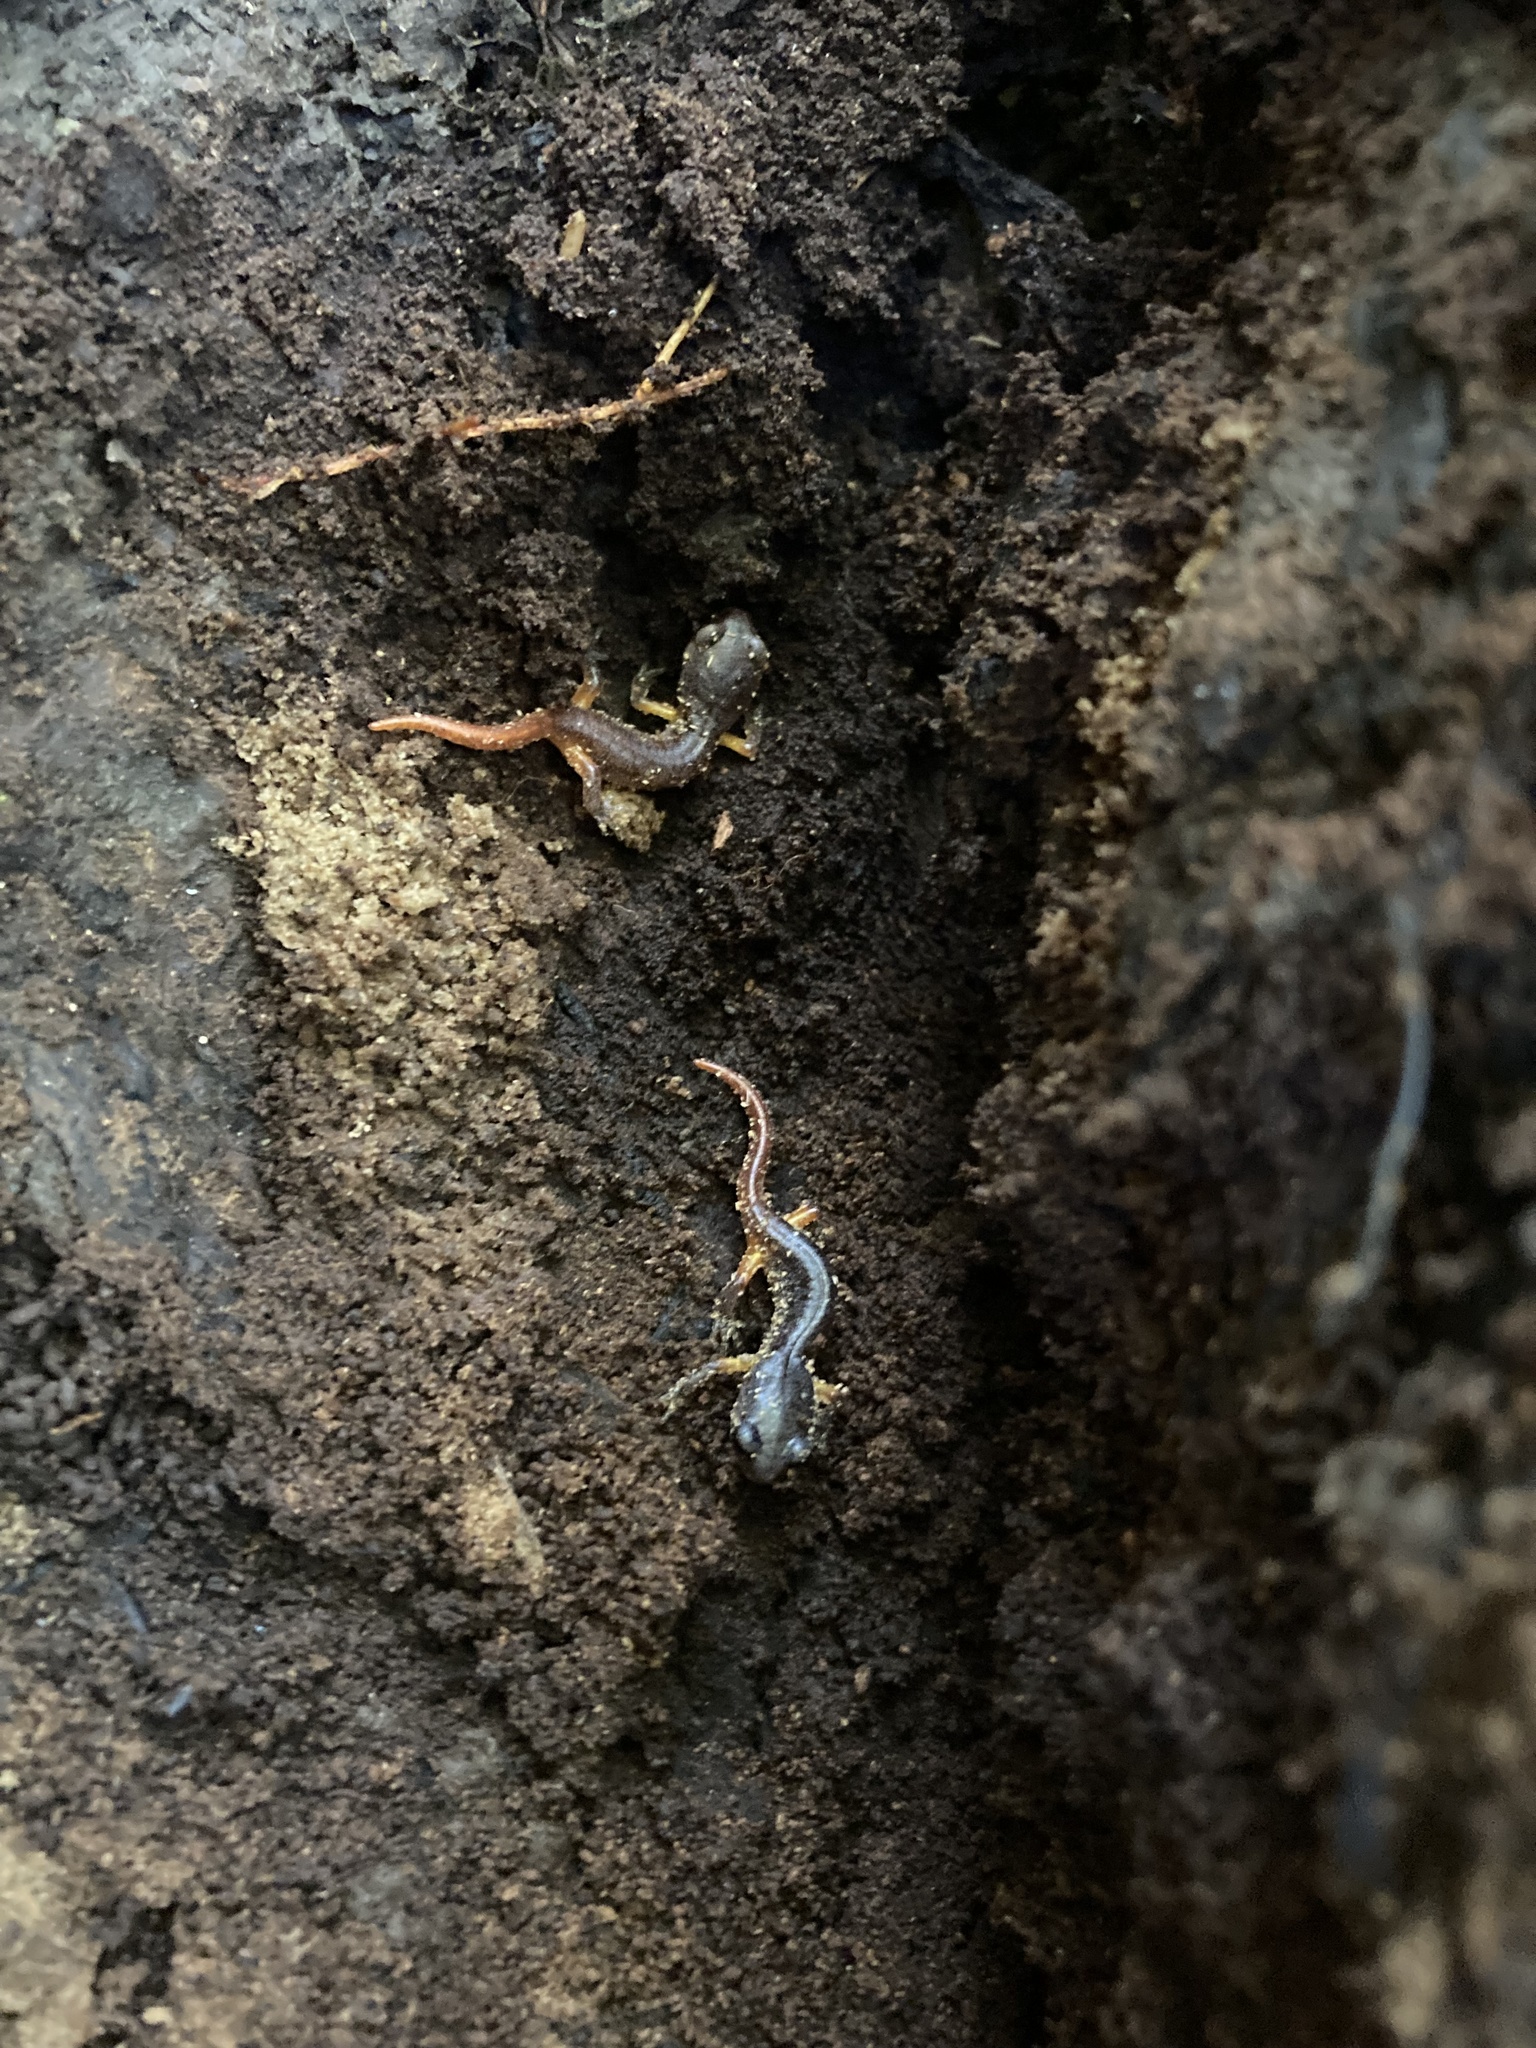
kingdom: Animalia
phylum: Chordata
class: Amphibia
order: Caudata
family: Plethodontidae
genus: Ensatina
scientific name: Ensatina eschscholtzii
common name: Ensatina
